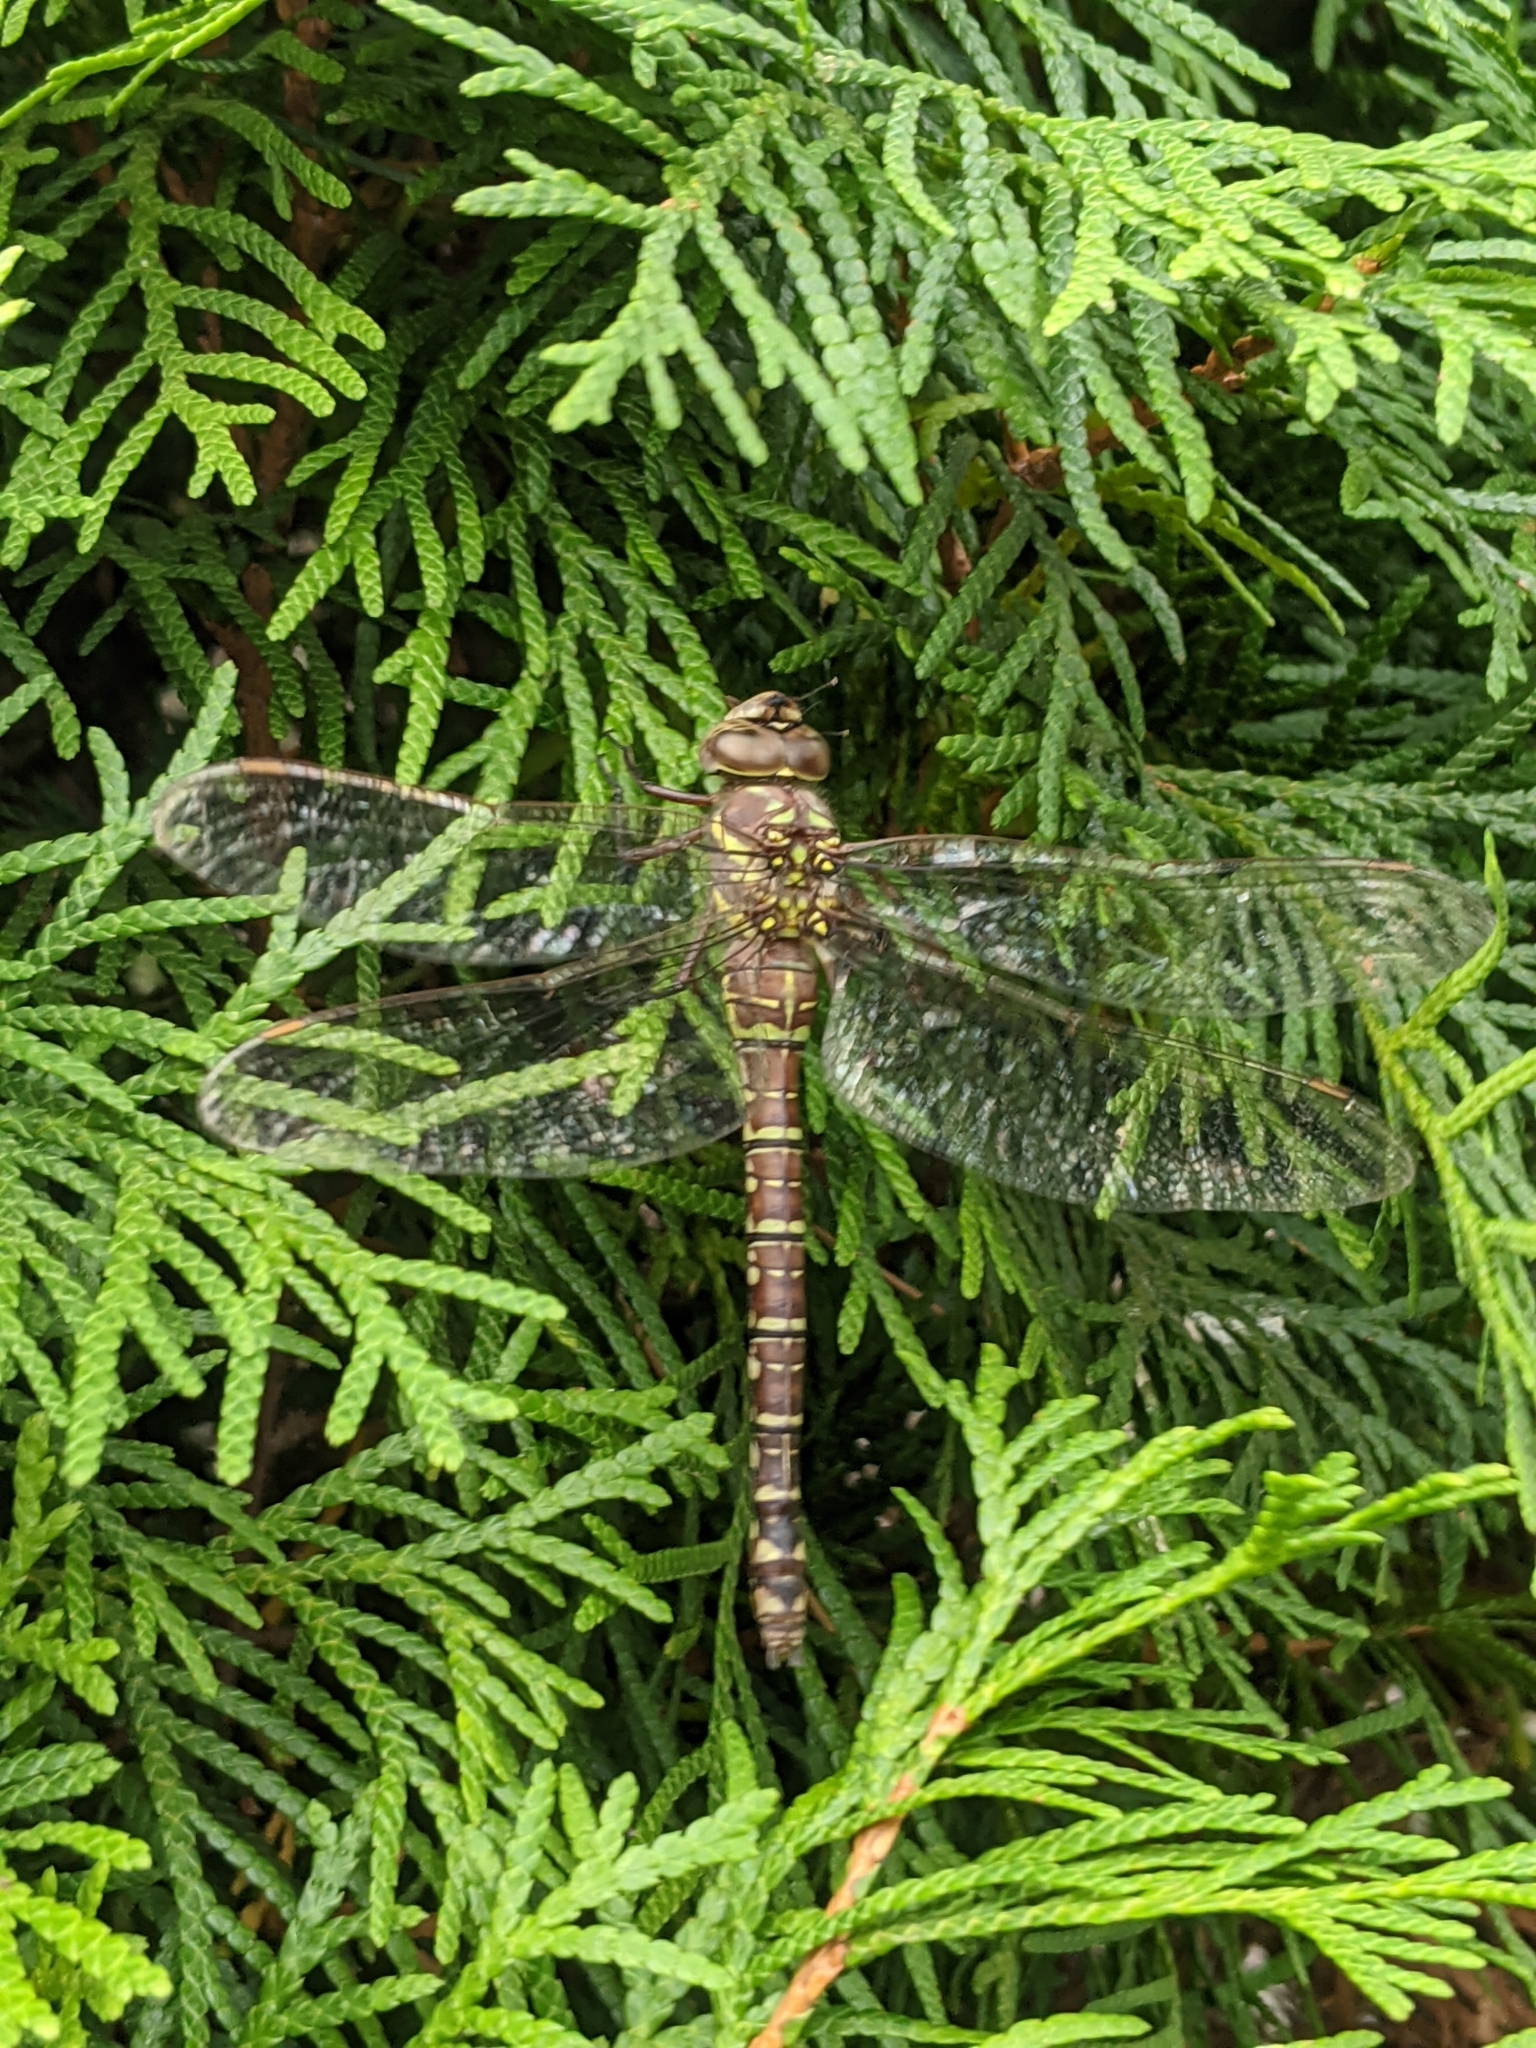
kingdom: Animalia
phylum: Arthropoda
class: Insecta
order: Odonata
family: Aeshnidae
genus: Aeshna
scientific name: Aeshna umbrosa
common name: Shadow darner
